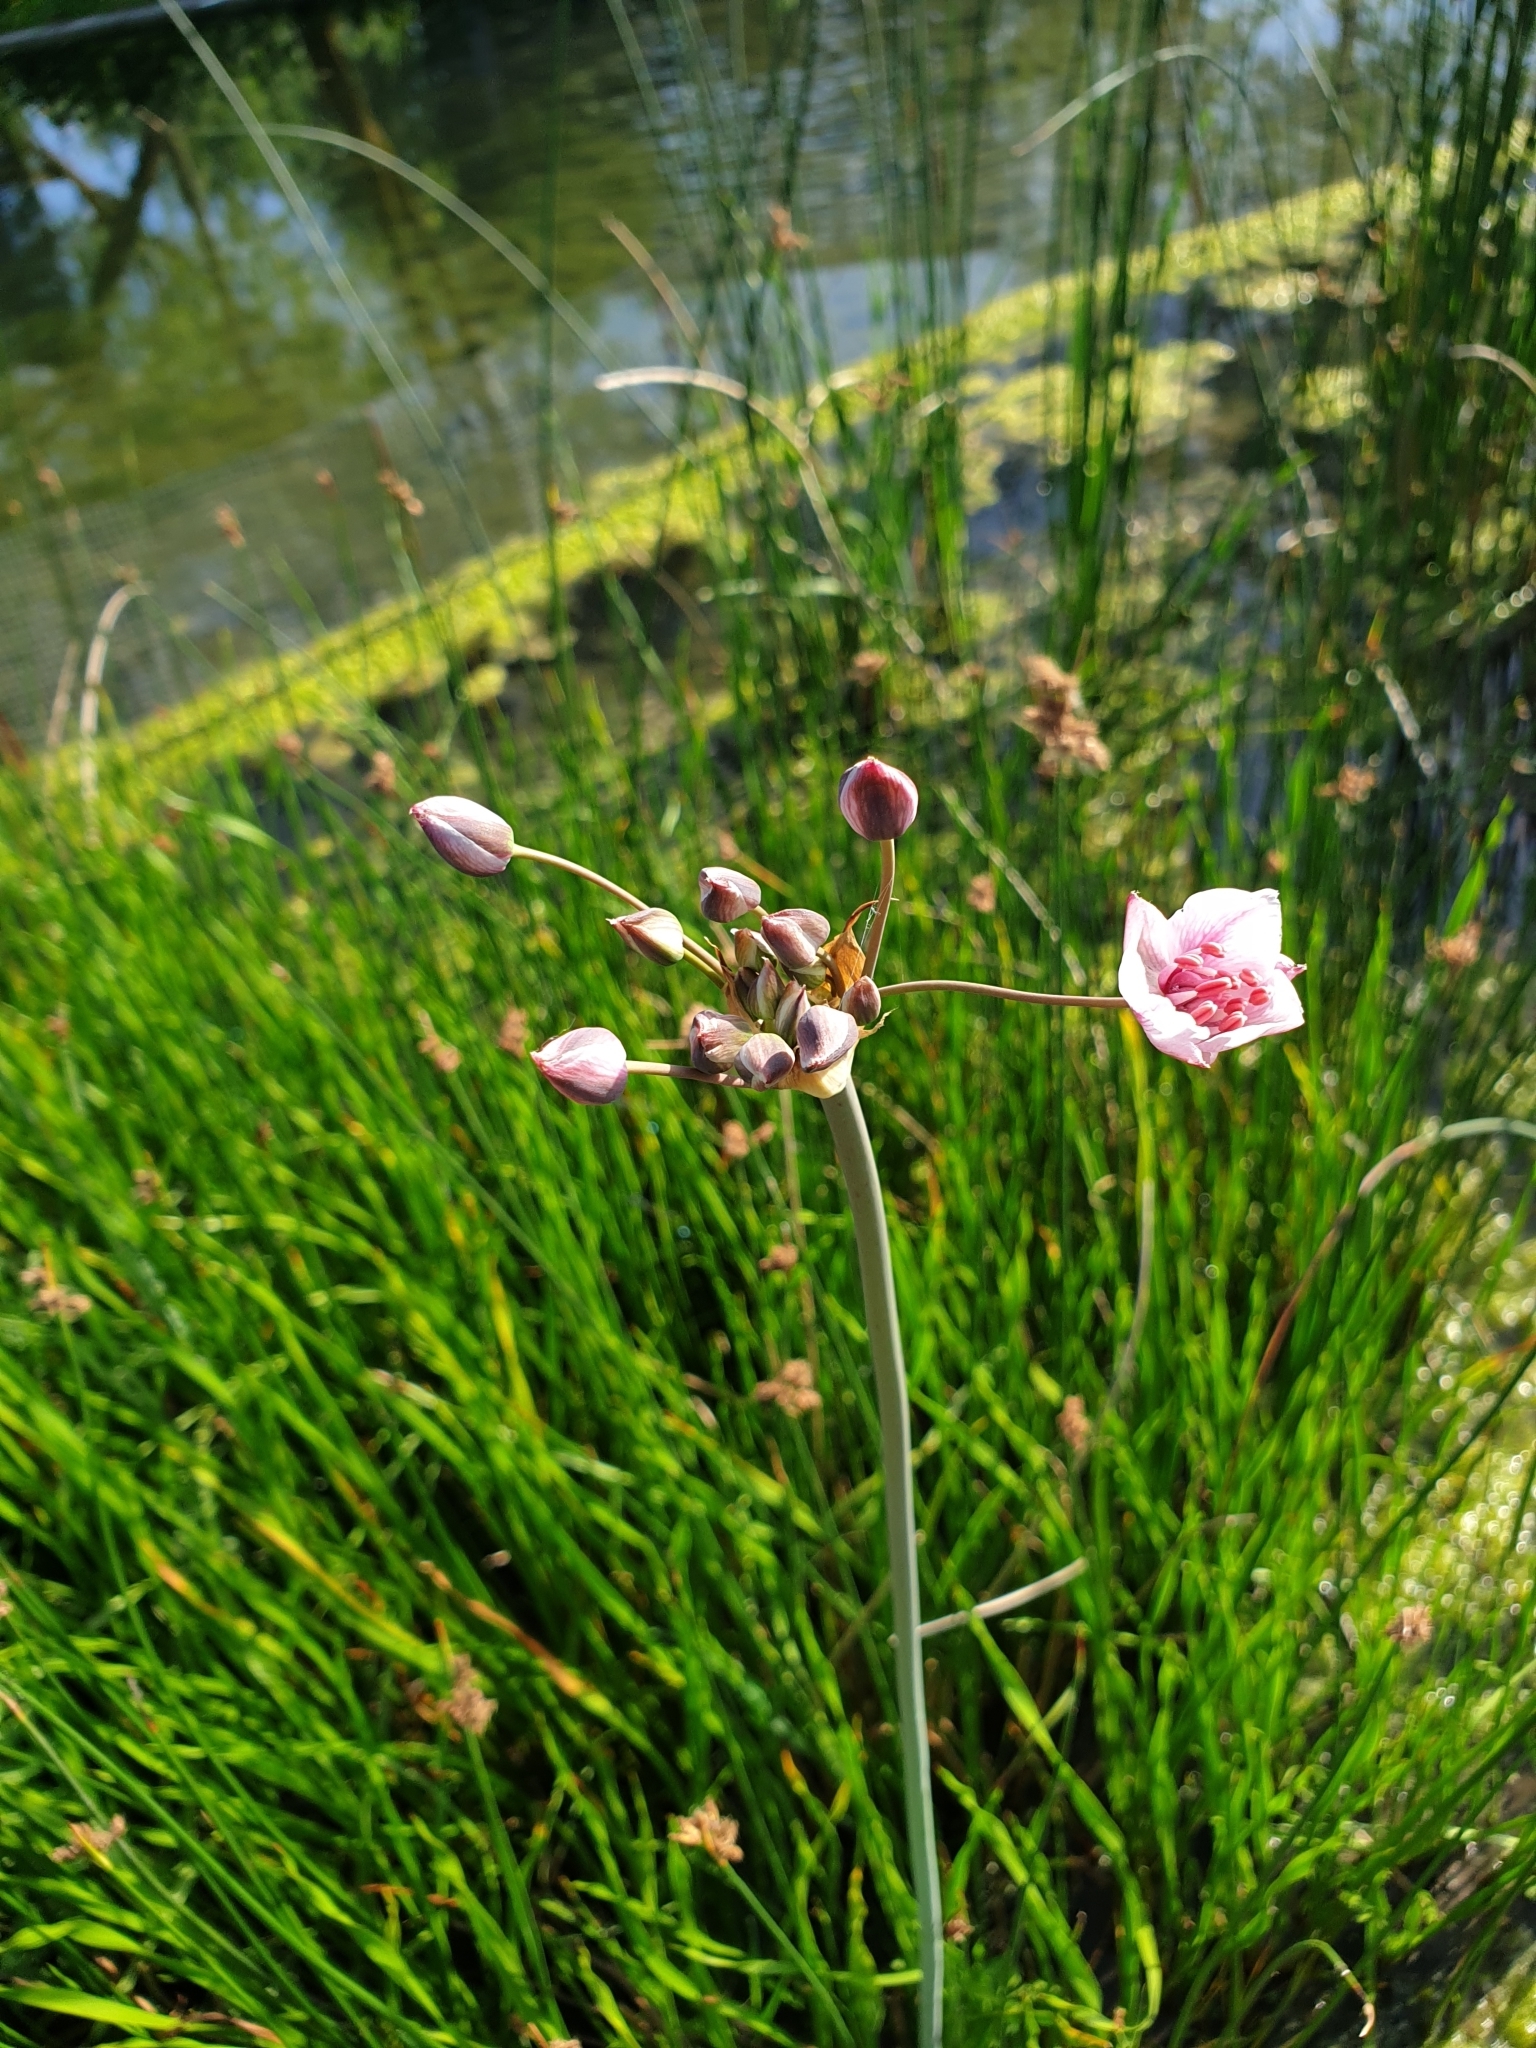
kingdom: Plantae
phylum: Tracheophyta
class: Liliopsida
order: Alismatales
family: Butomaceae
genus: Butomus
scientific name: Butomus umbellatus
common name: Flowering-rush
